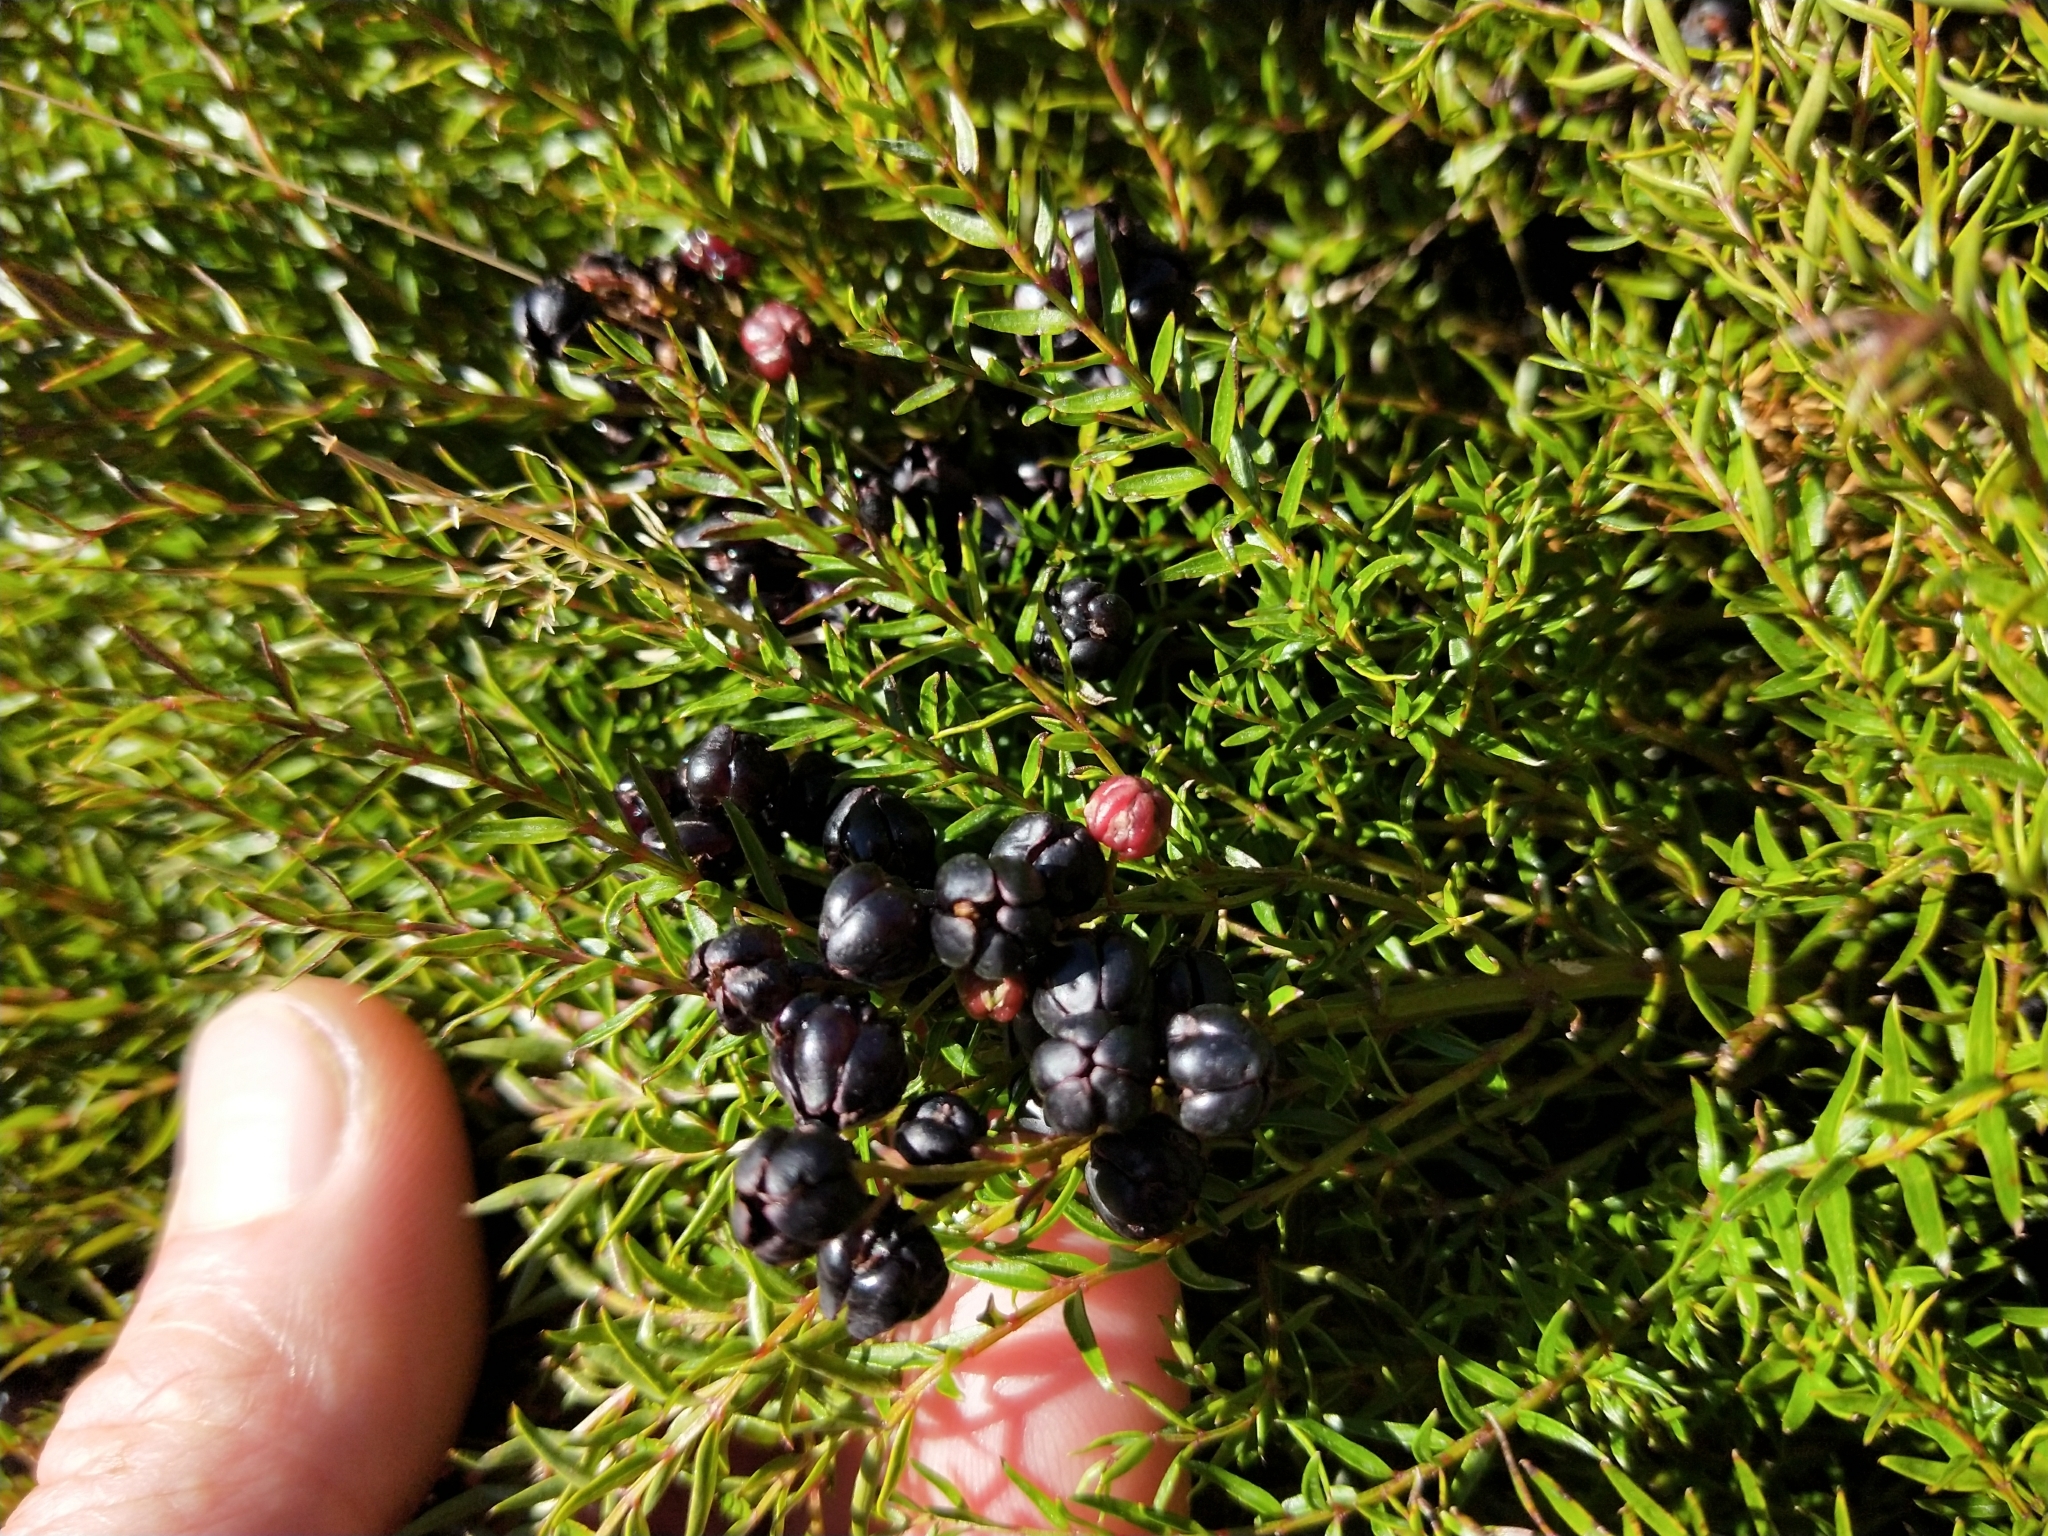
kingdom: Plantae
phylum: Tracheophyta
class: Magnoliopsida
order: Cucurbitales
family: Coriariaceae
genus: Coriaria
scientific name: Coriaria angustissima
